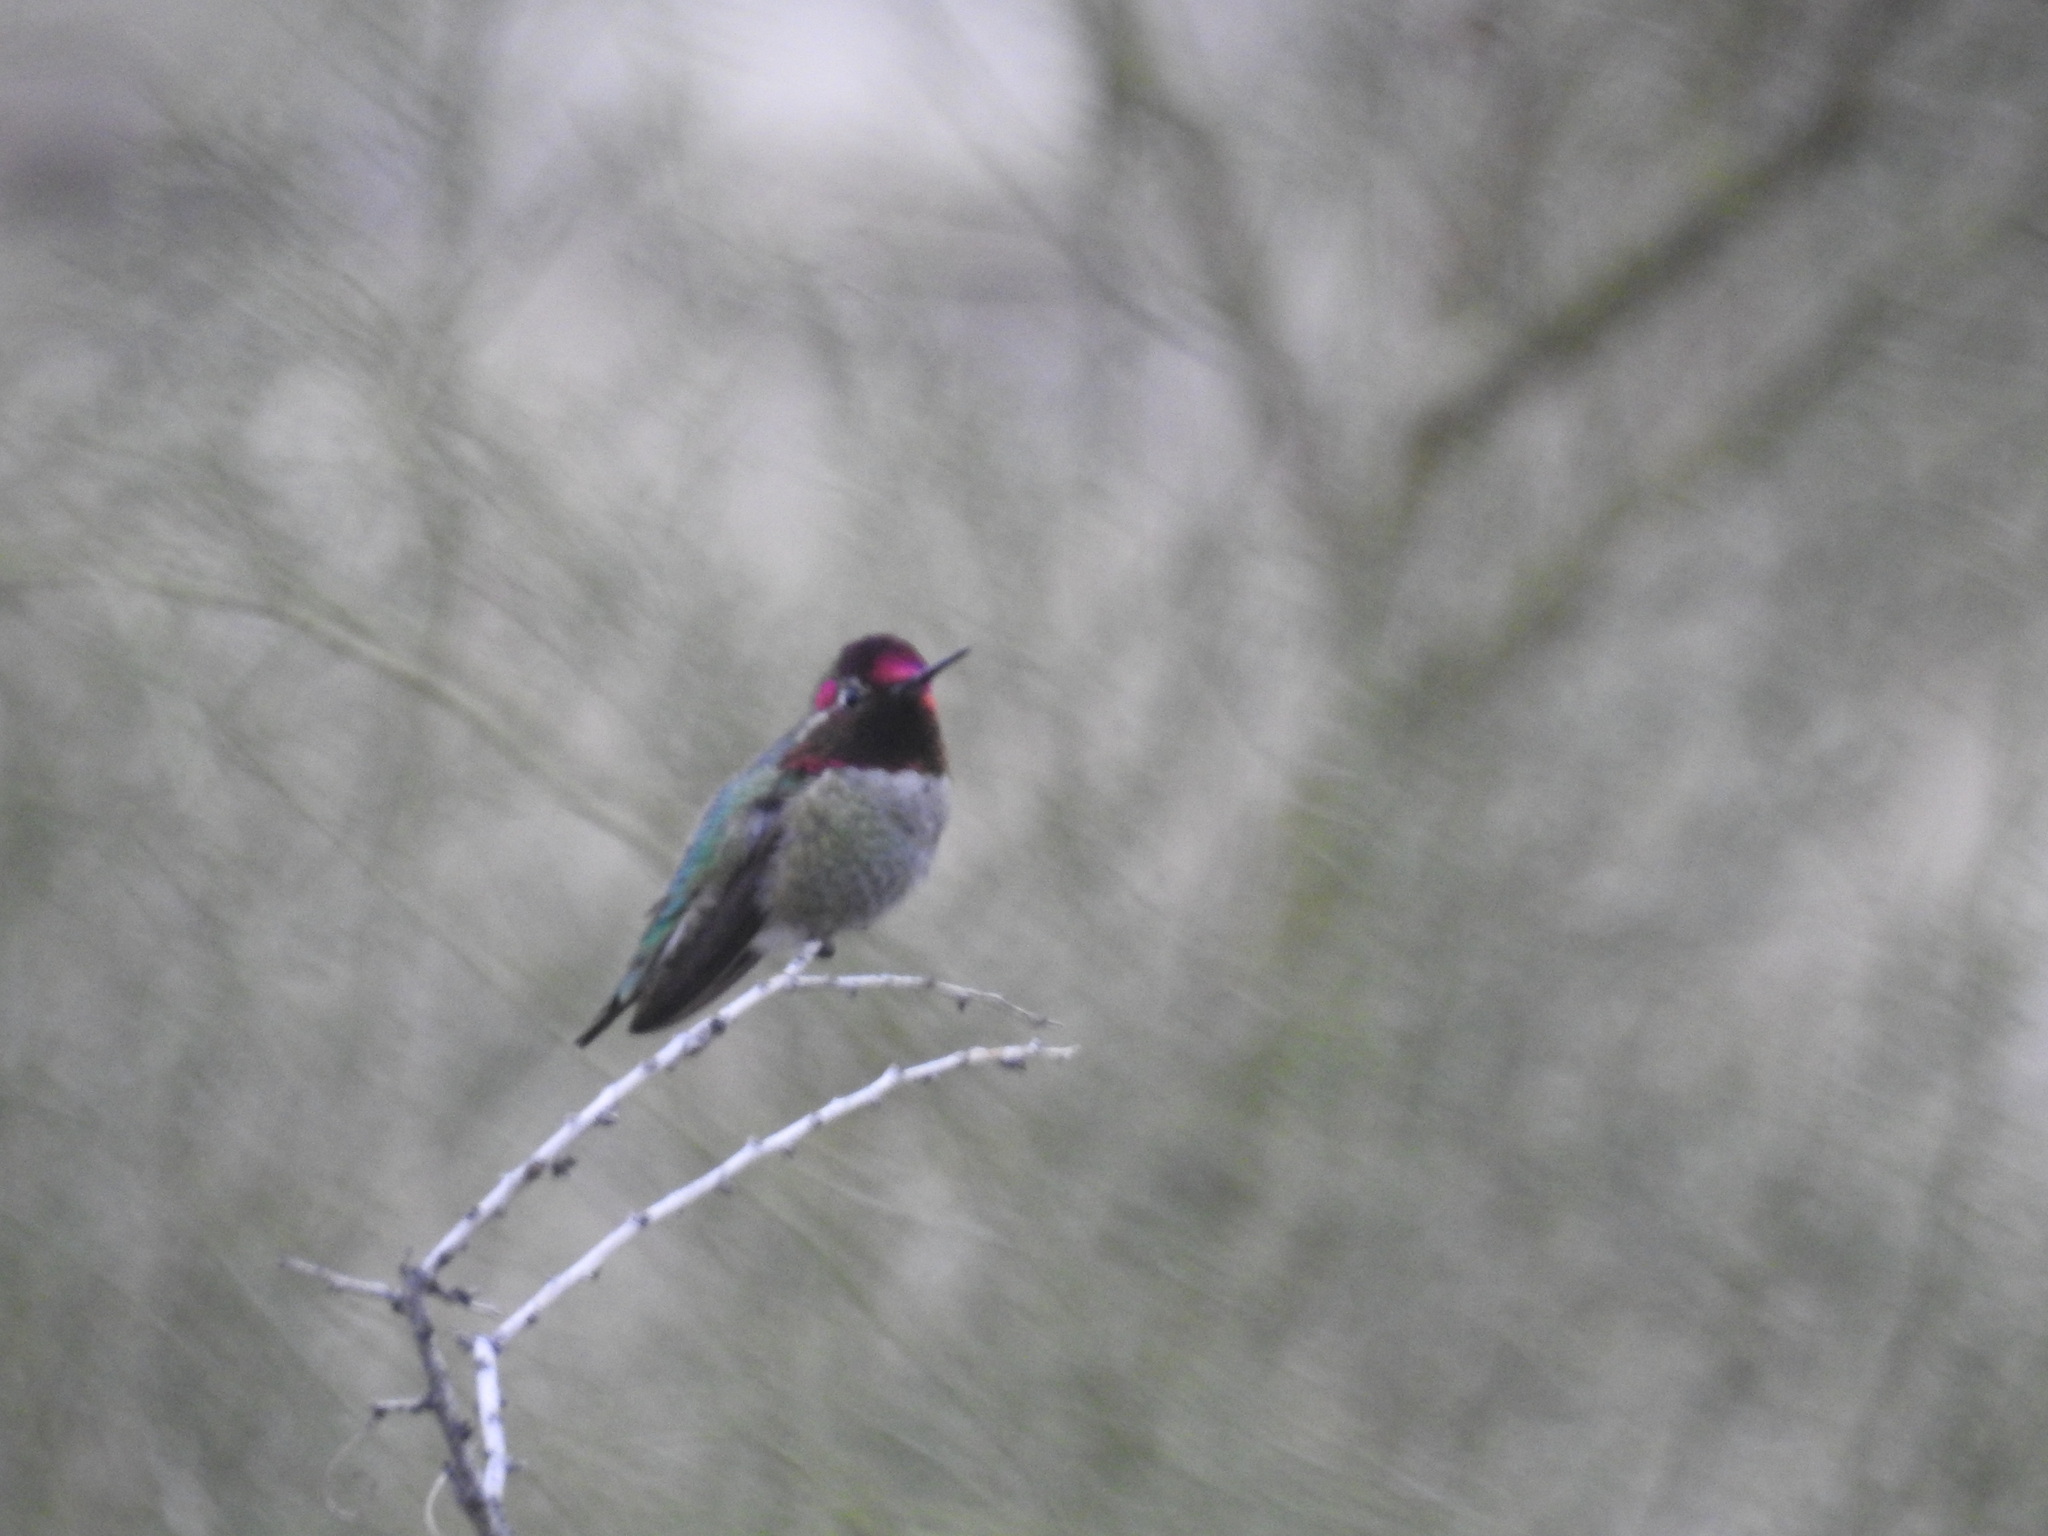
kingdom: Animalia
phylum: Chordata
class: Aves
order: Apodiformes
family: Trochilidae
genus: Calypte
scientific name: Calypte anna
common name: Anna's hummingbird
